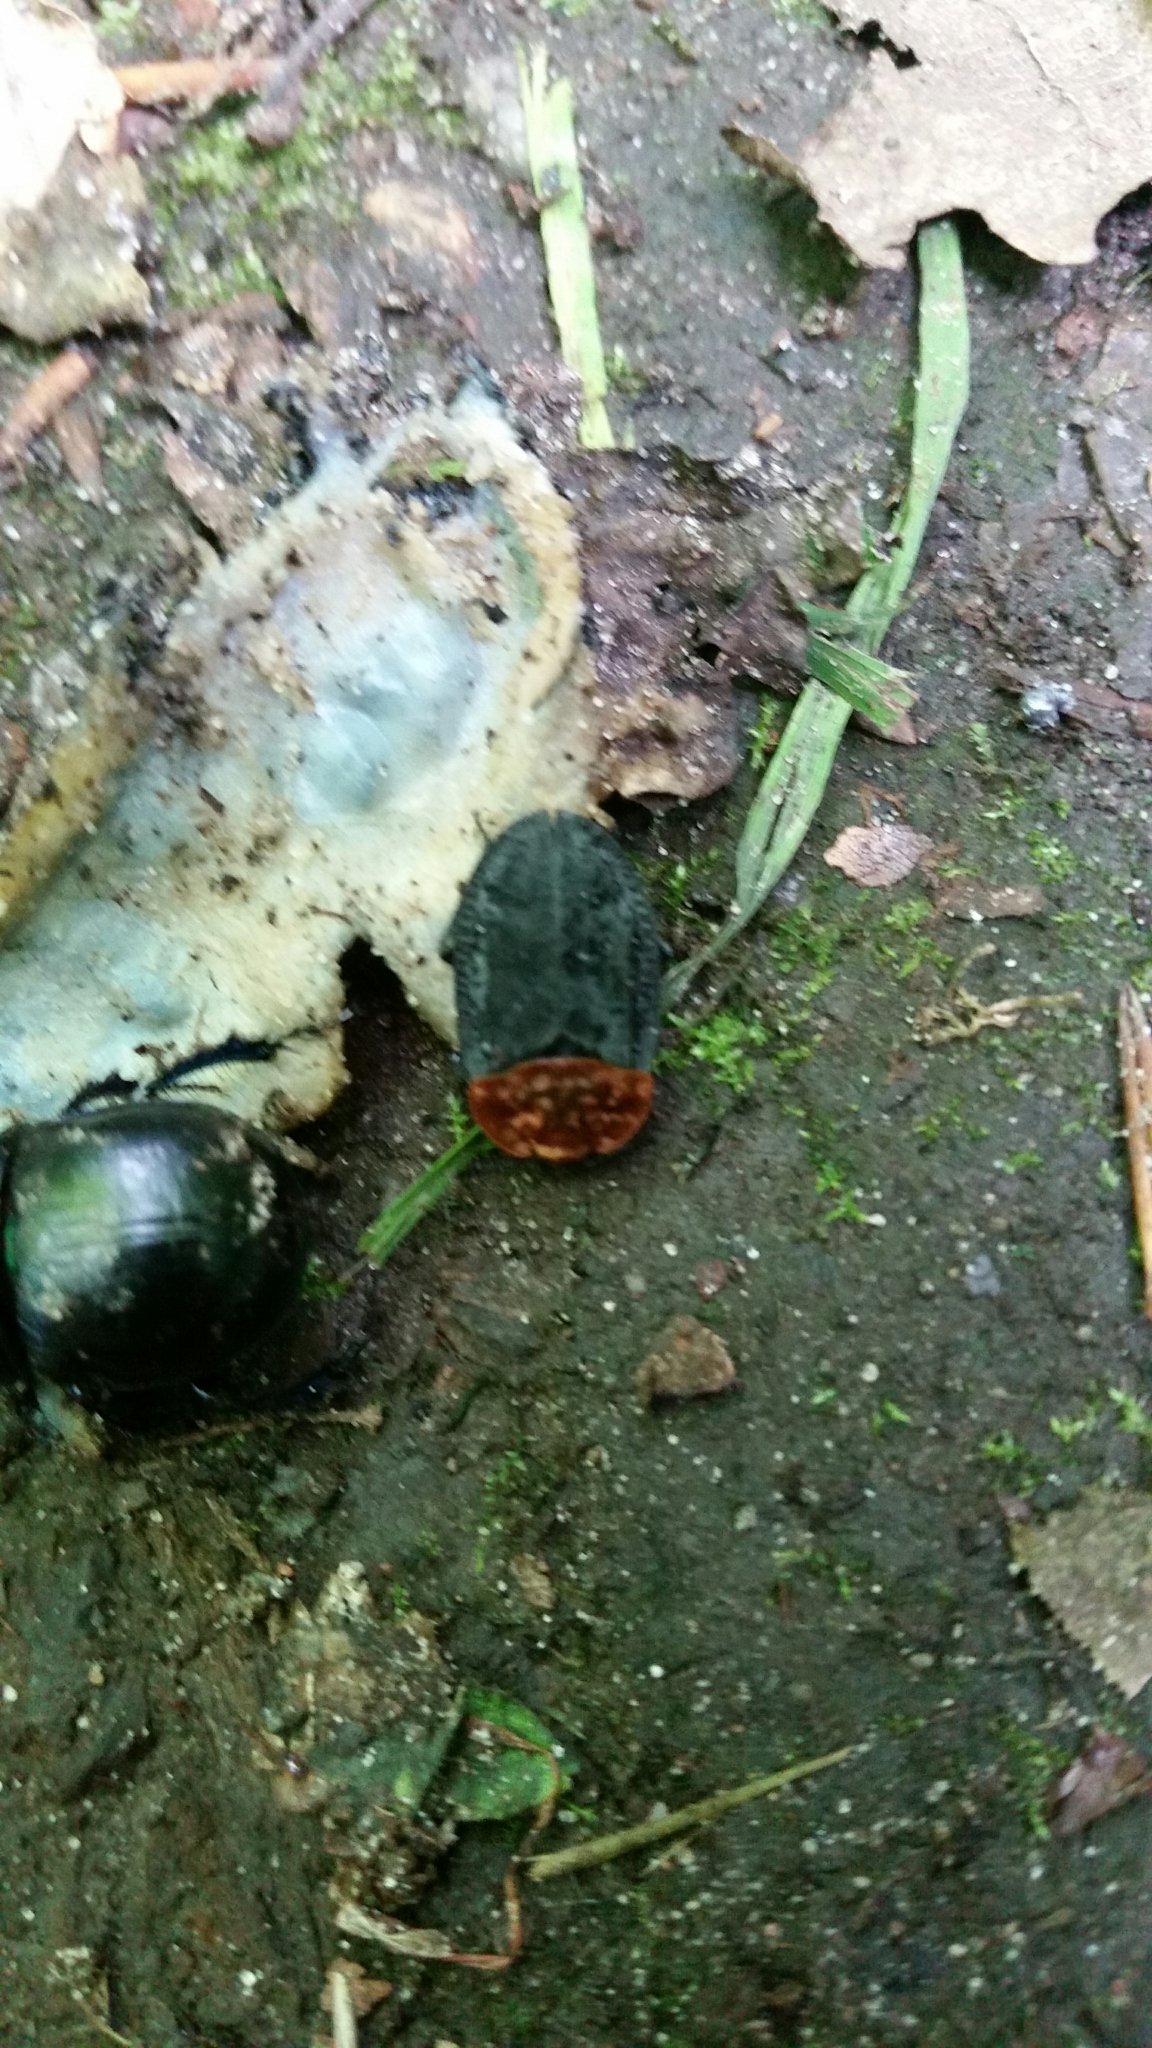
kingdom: Animalia
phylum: Arthropoda
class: Insecta
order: Coleoptera
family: Staphylinidae
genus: Oiceoptoma
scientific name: Oiceoptoma thoracicum
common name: Red-breasted carrion beetle
